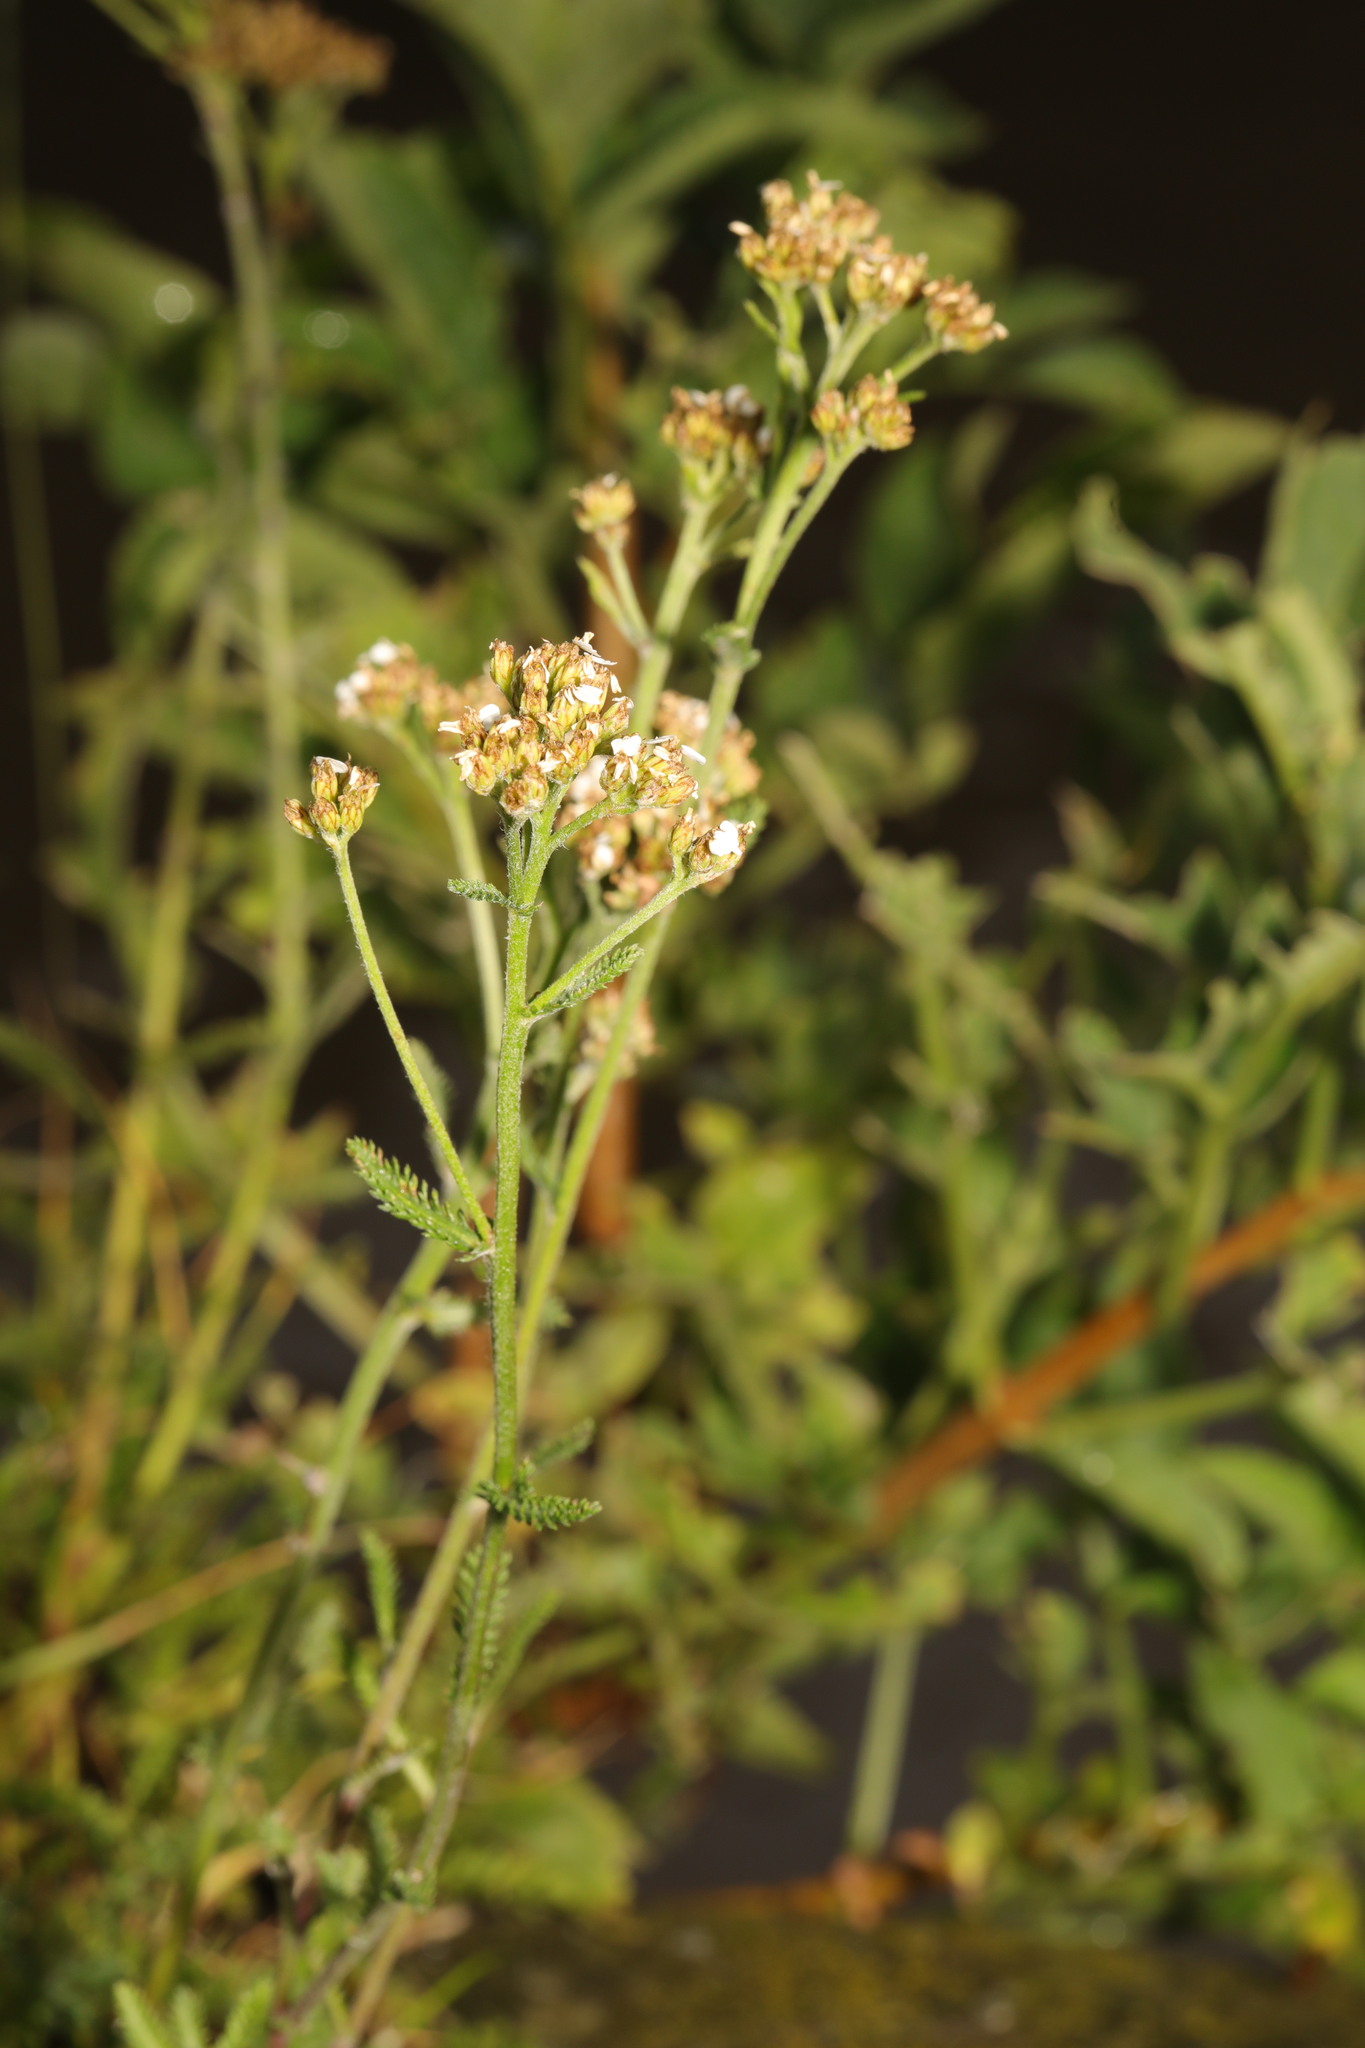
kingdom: Plantae
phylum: Tracheophyta
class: Magnoliopsida
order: Asterales
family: Asteraceae
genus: Achillea
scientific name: Achillea millefolium
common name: Yarrow
